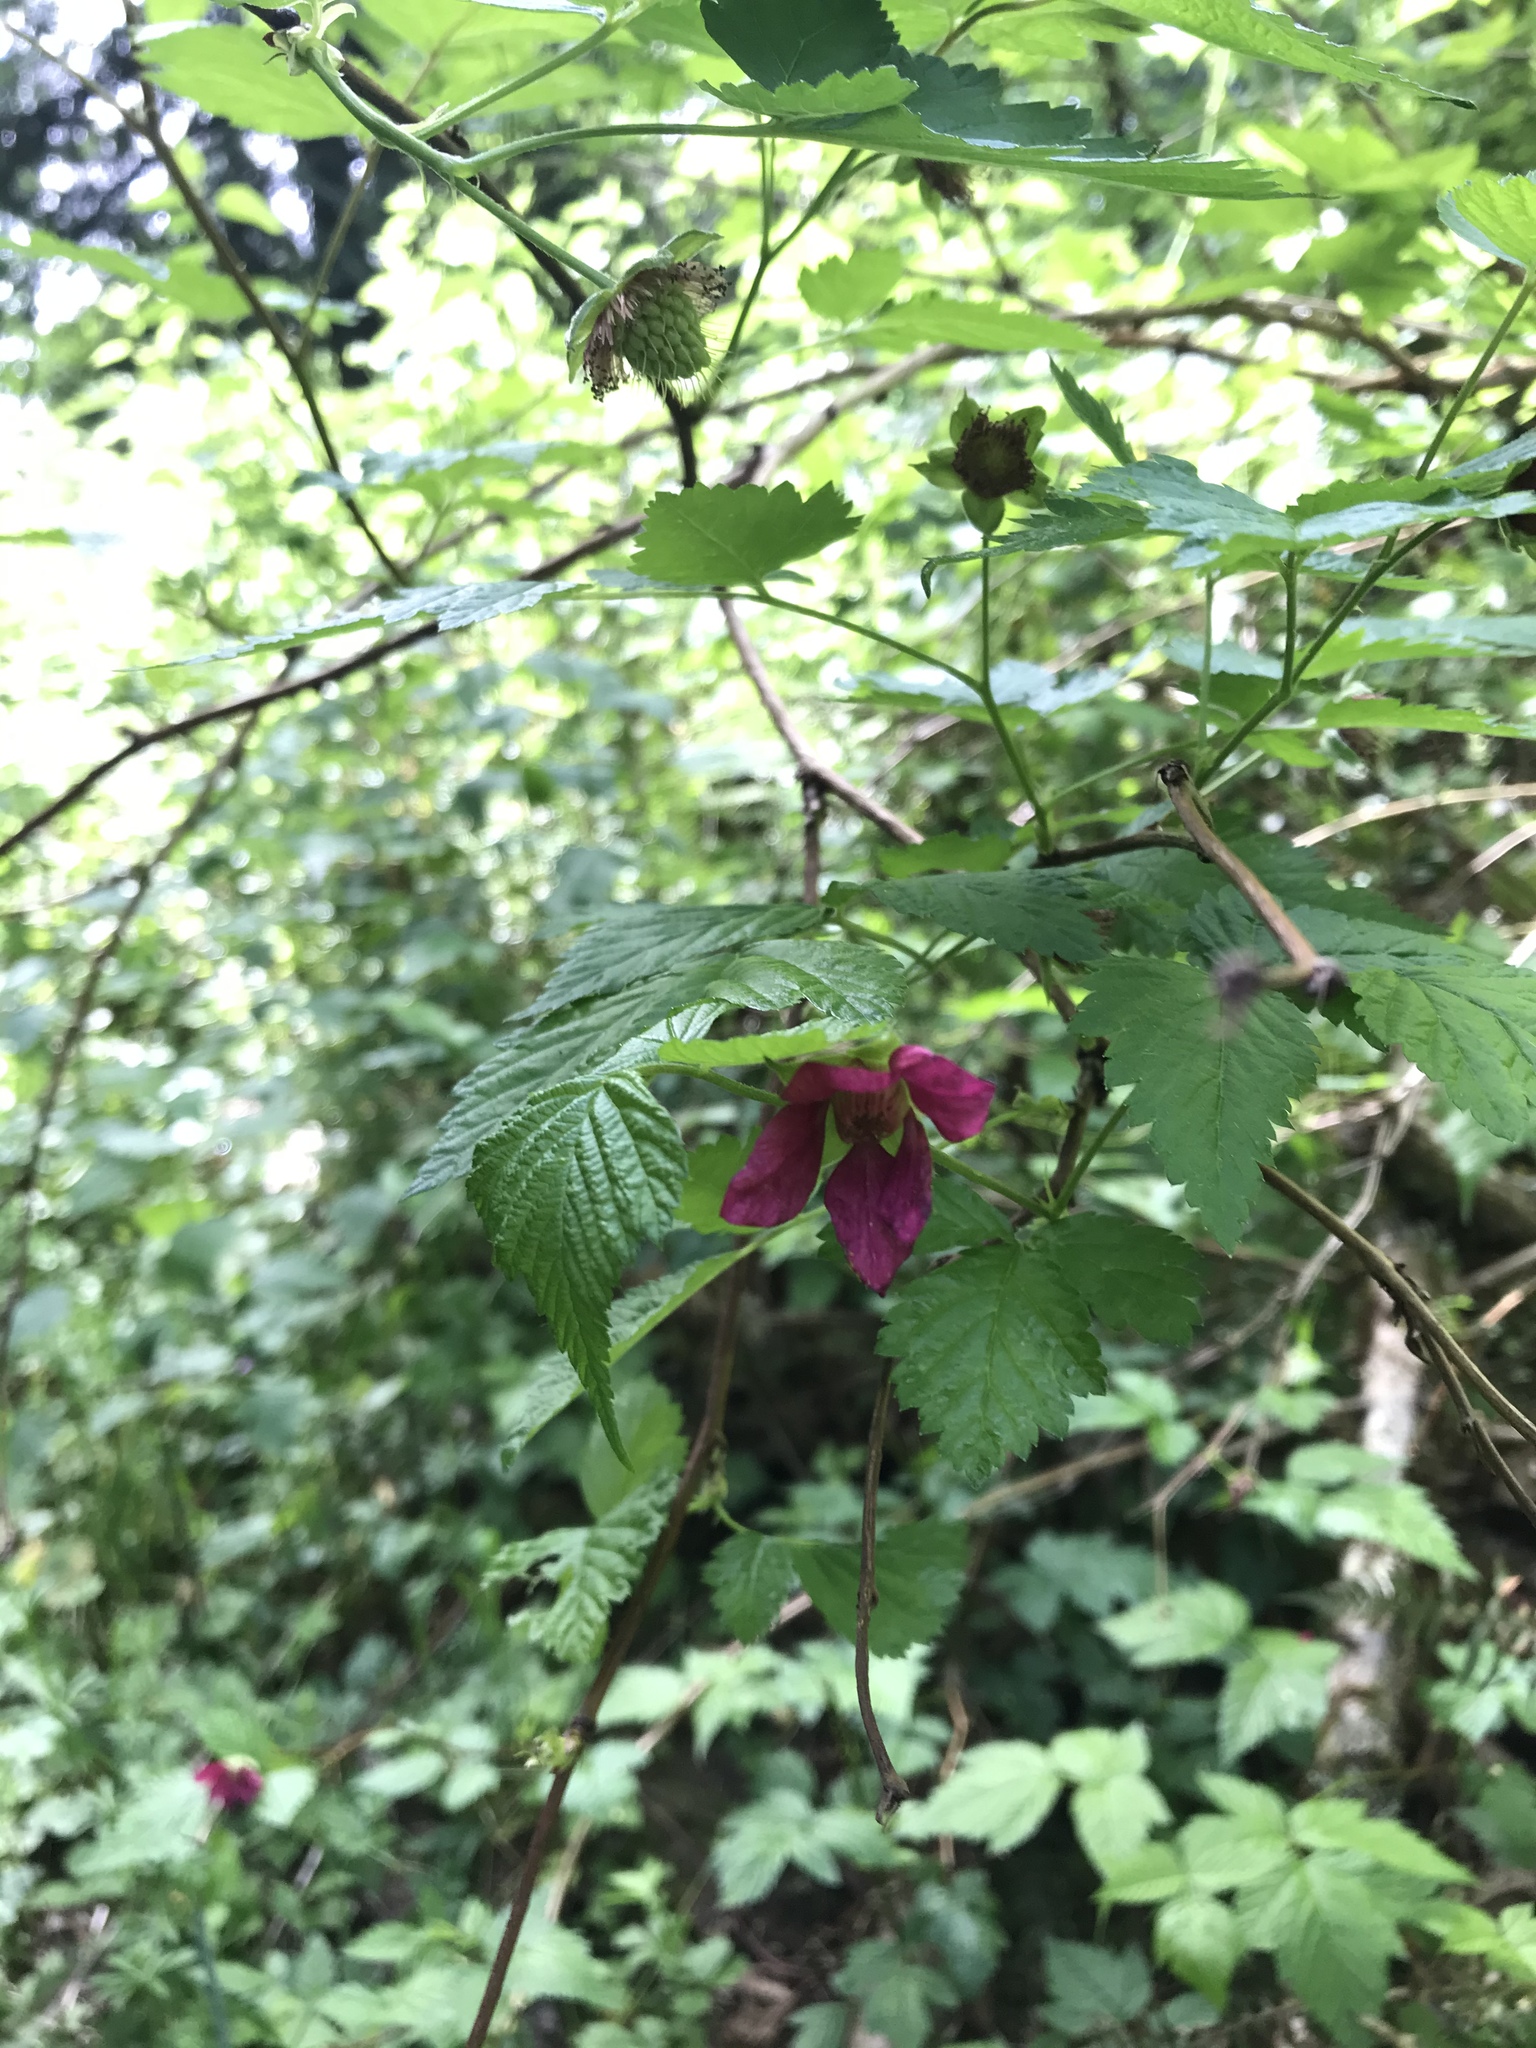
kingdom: Plantae
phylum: Tracheophyta
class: Magnoliopsida
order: Rosales
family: Rosaceae
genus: Rubus
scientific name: Rubus spectabilis
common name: Salmonberry
